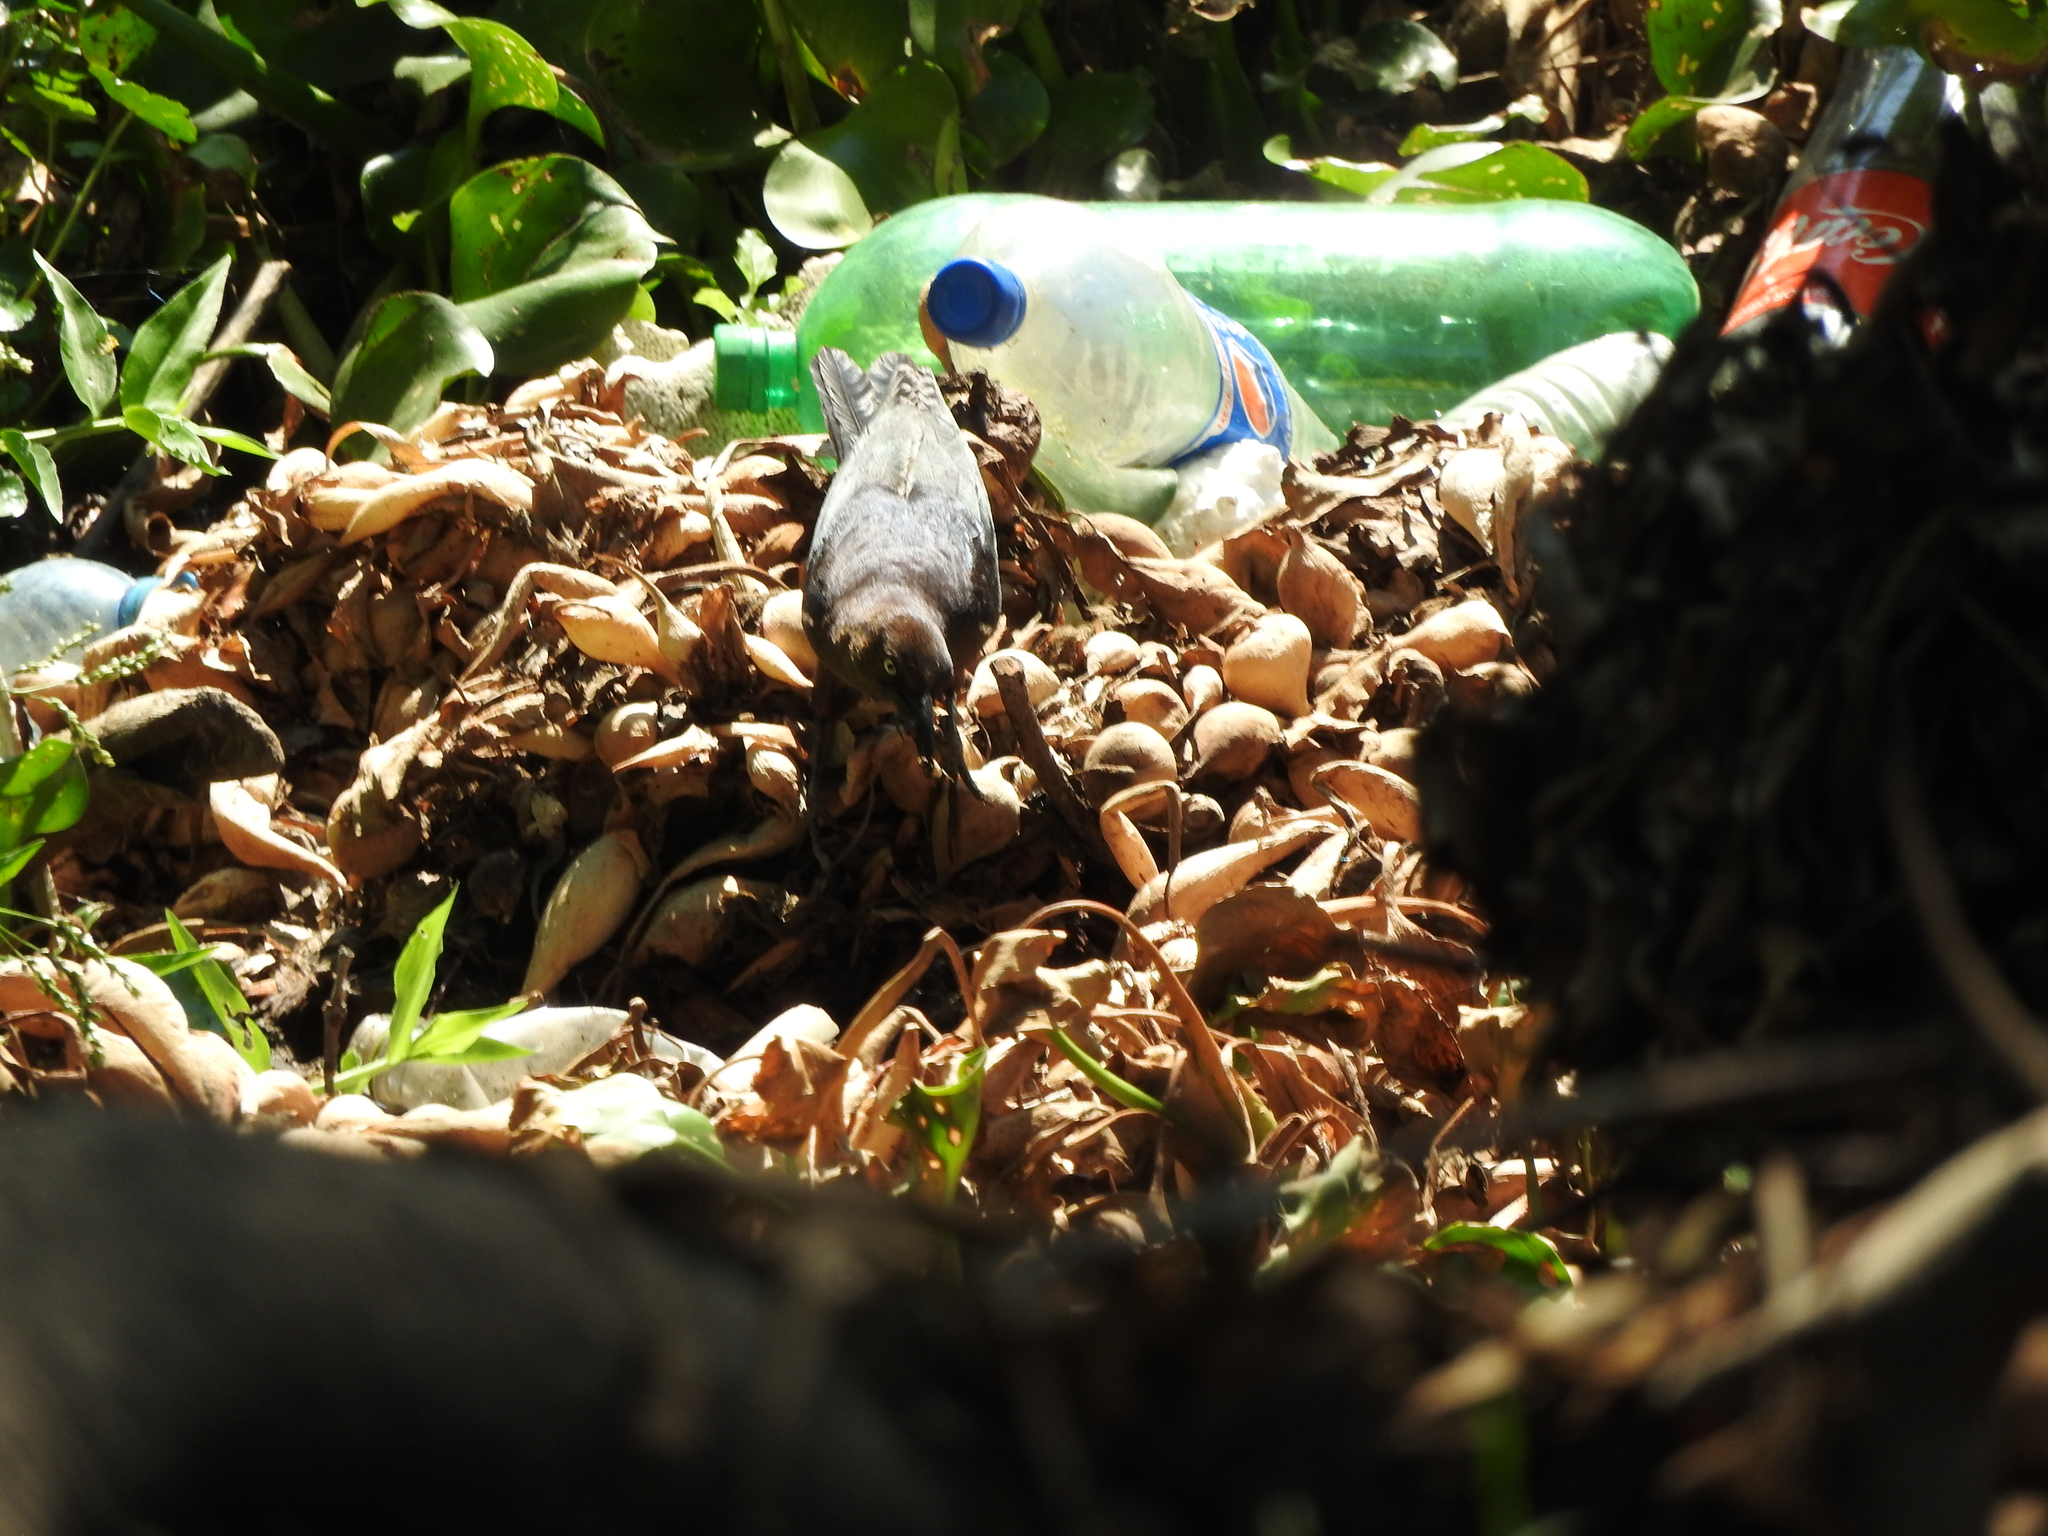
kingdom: Animalia
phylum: Chordata
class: Aves
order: Passeriformes
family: Icteridae
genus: Quiscalus
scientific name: Quiscalus mexicanus
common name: Great-tailed grackle
